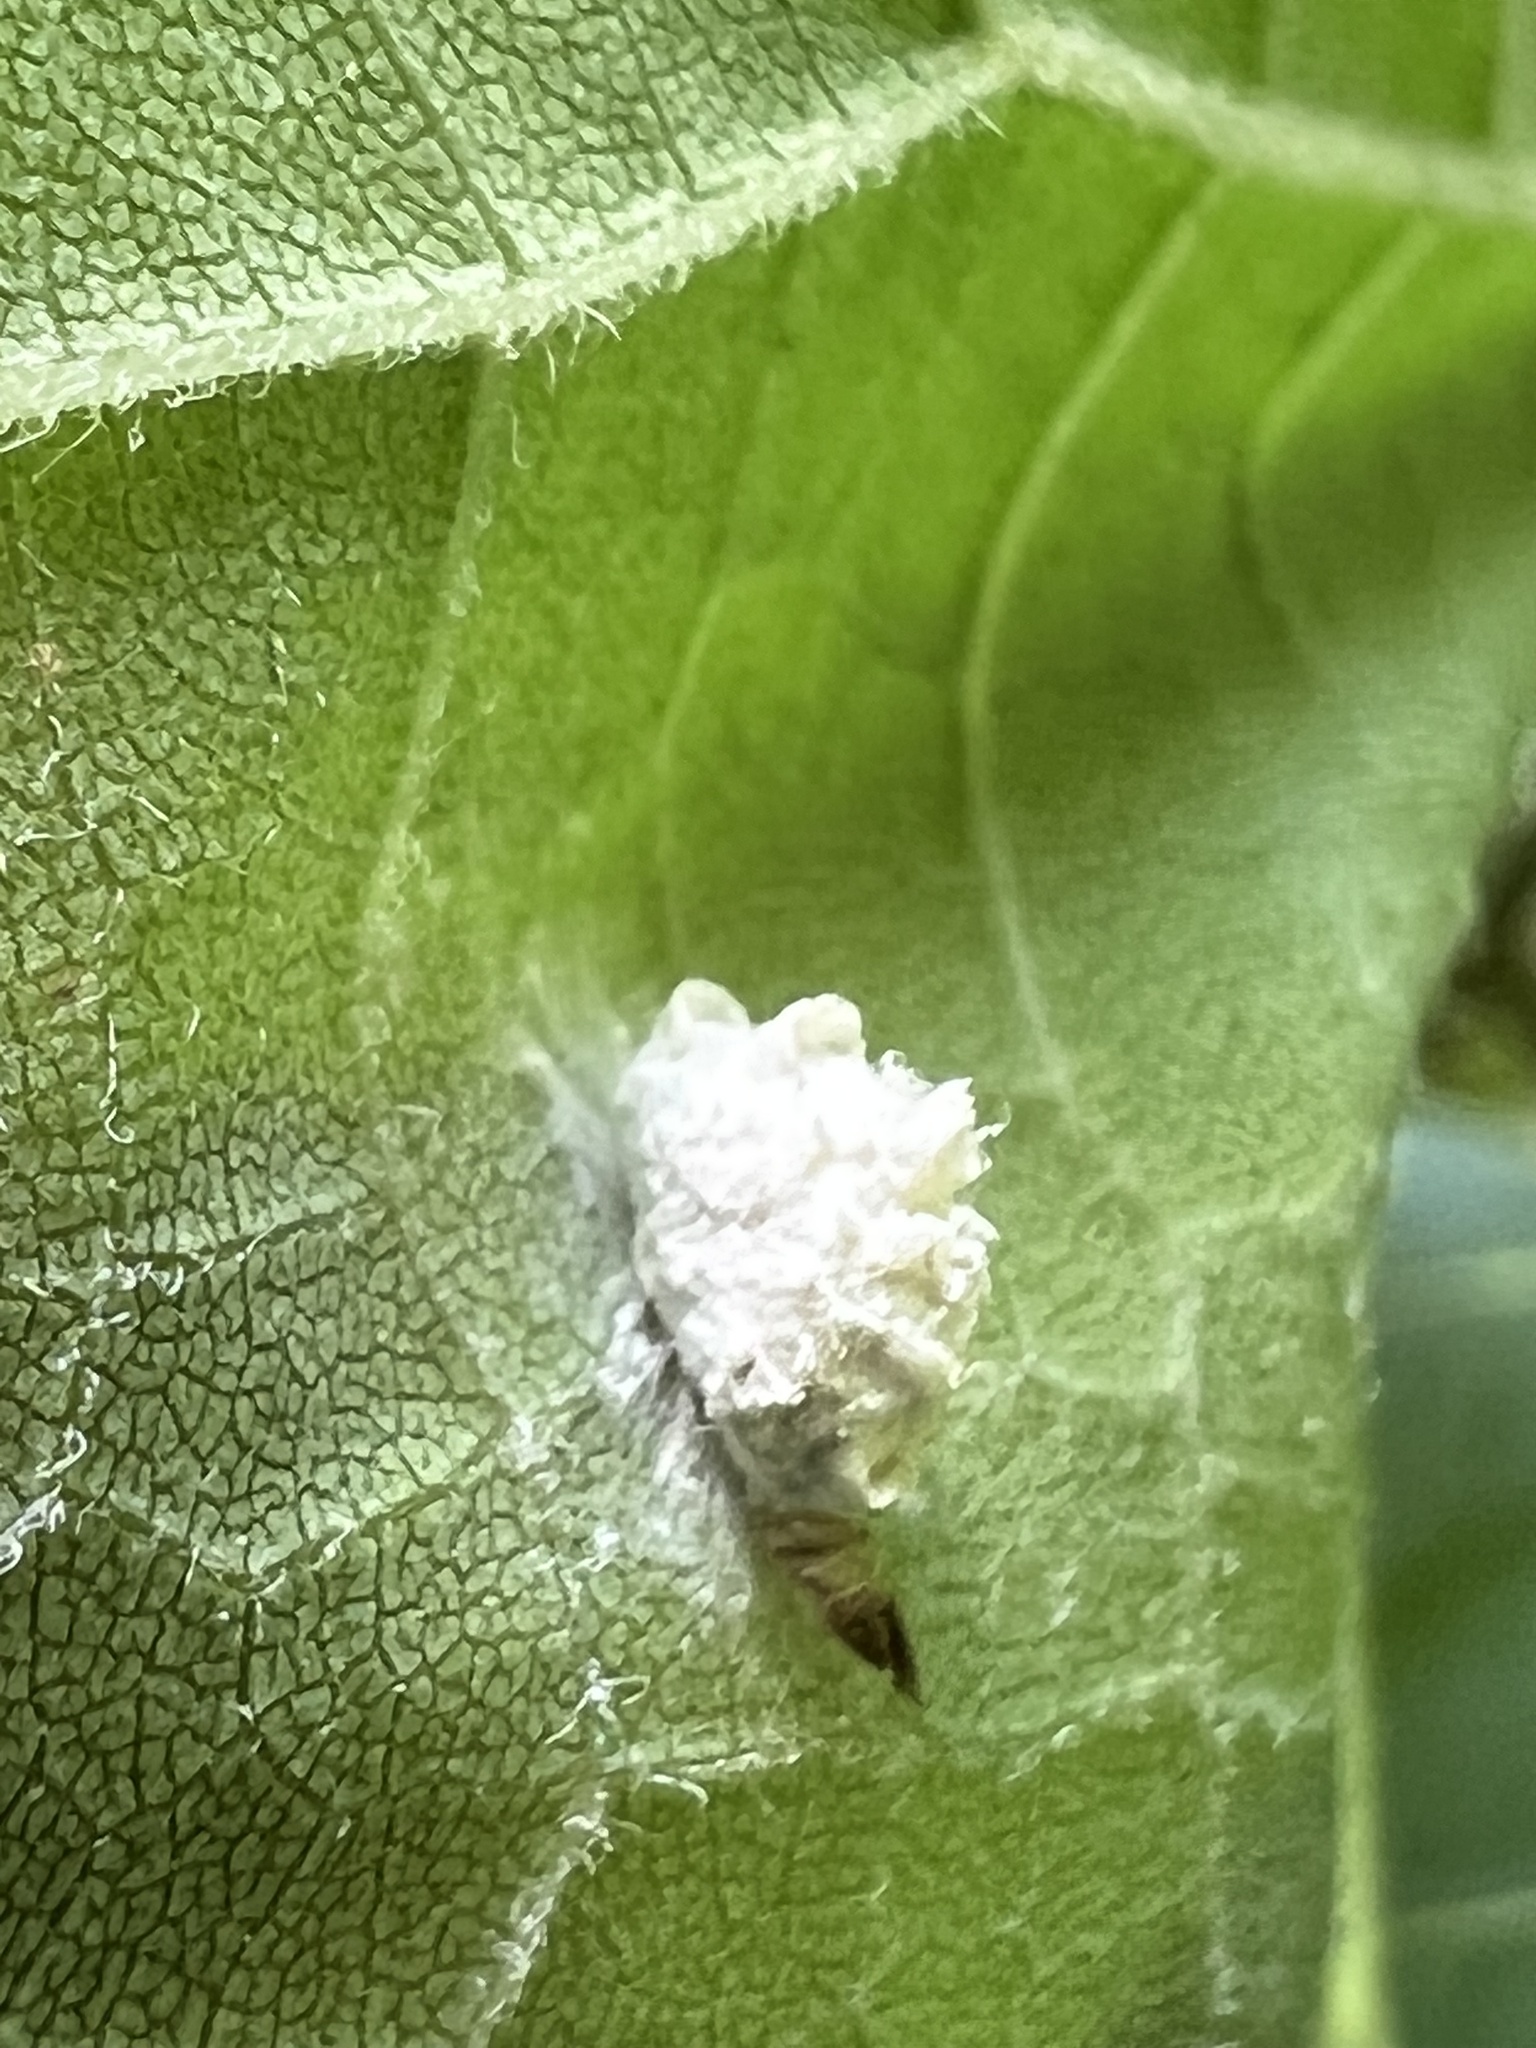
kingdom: Animalia
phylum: Arthropoda
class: Insecta
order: Lepidoptera
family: Epipyropidae
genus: Fulgoraecia
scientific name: Fulgoraecia exigua
